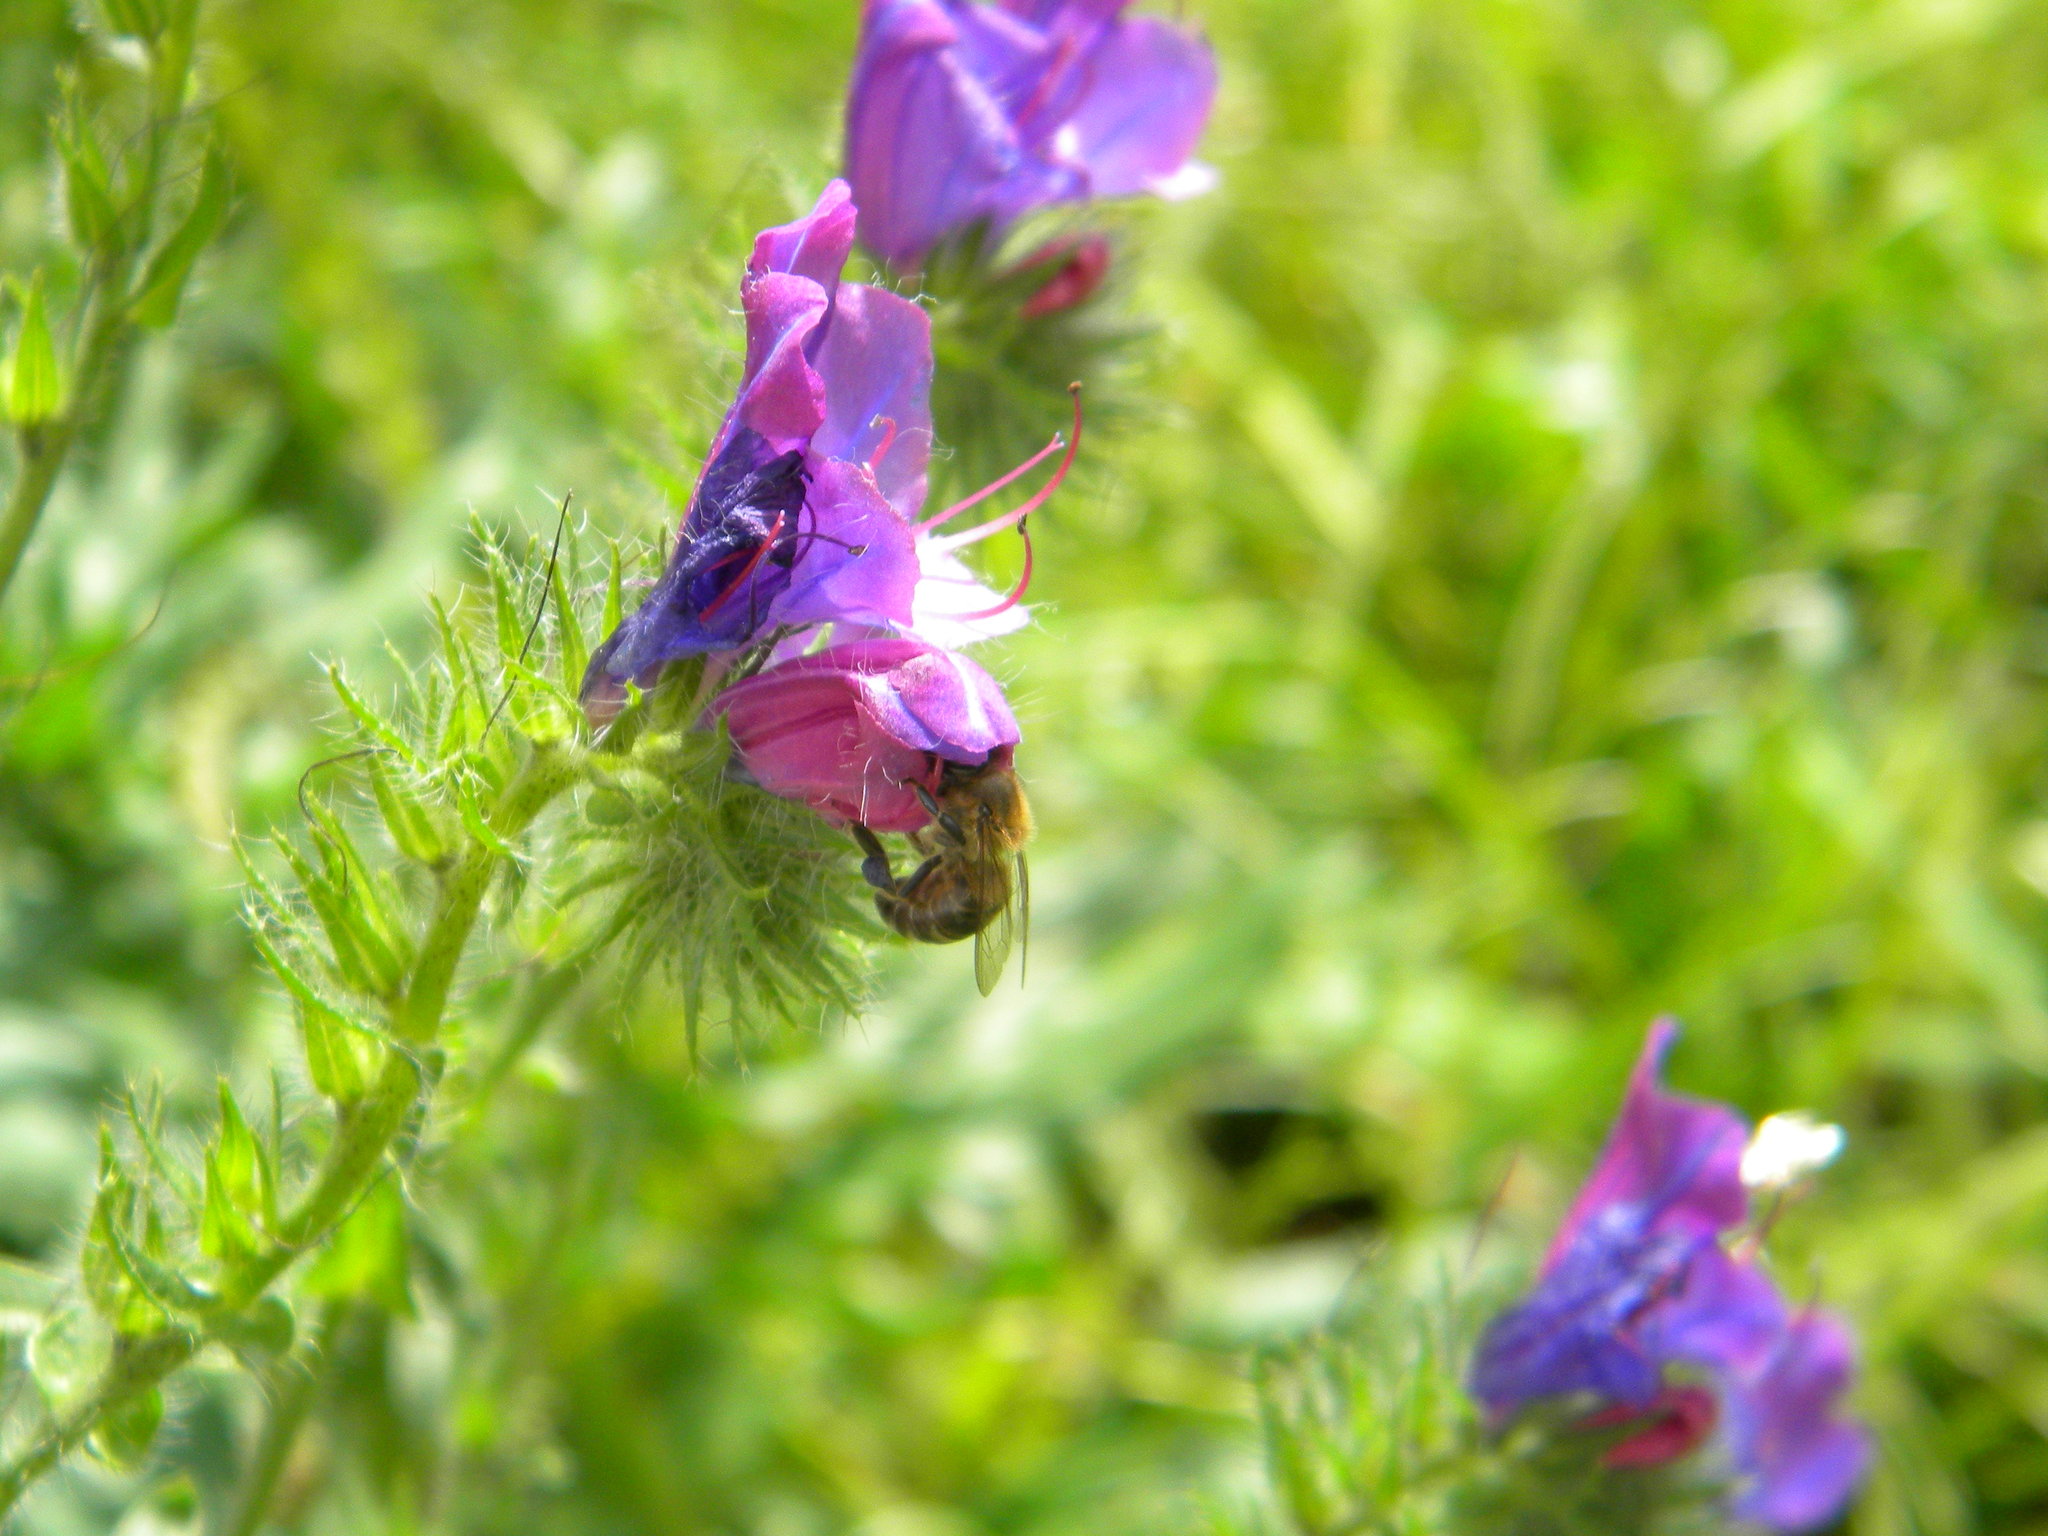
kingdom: Animalia
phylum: Arthropoda
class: Insecta
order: Hymenoptera
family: Apidae
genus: Apis
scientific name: Apis mellifera
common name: Honey bee
